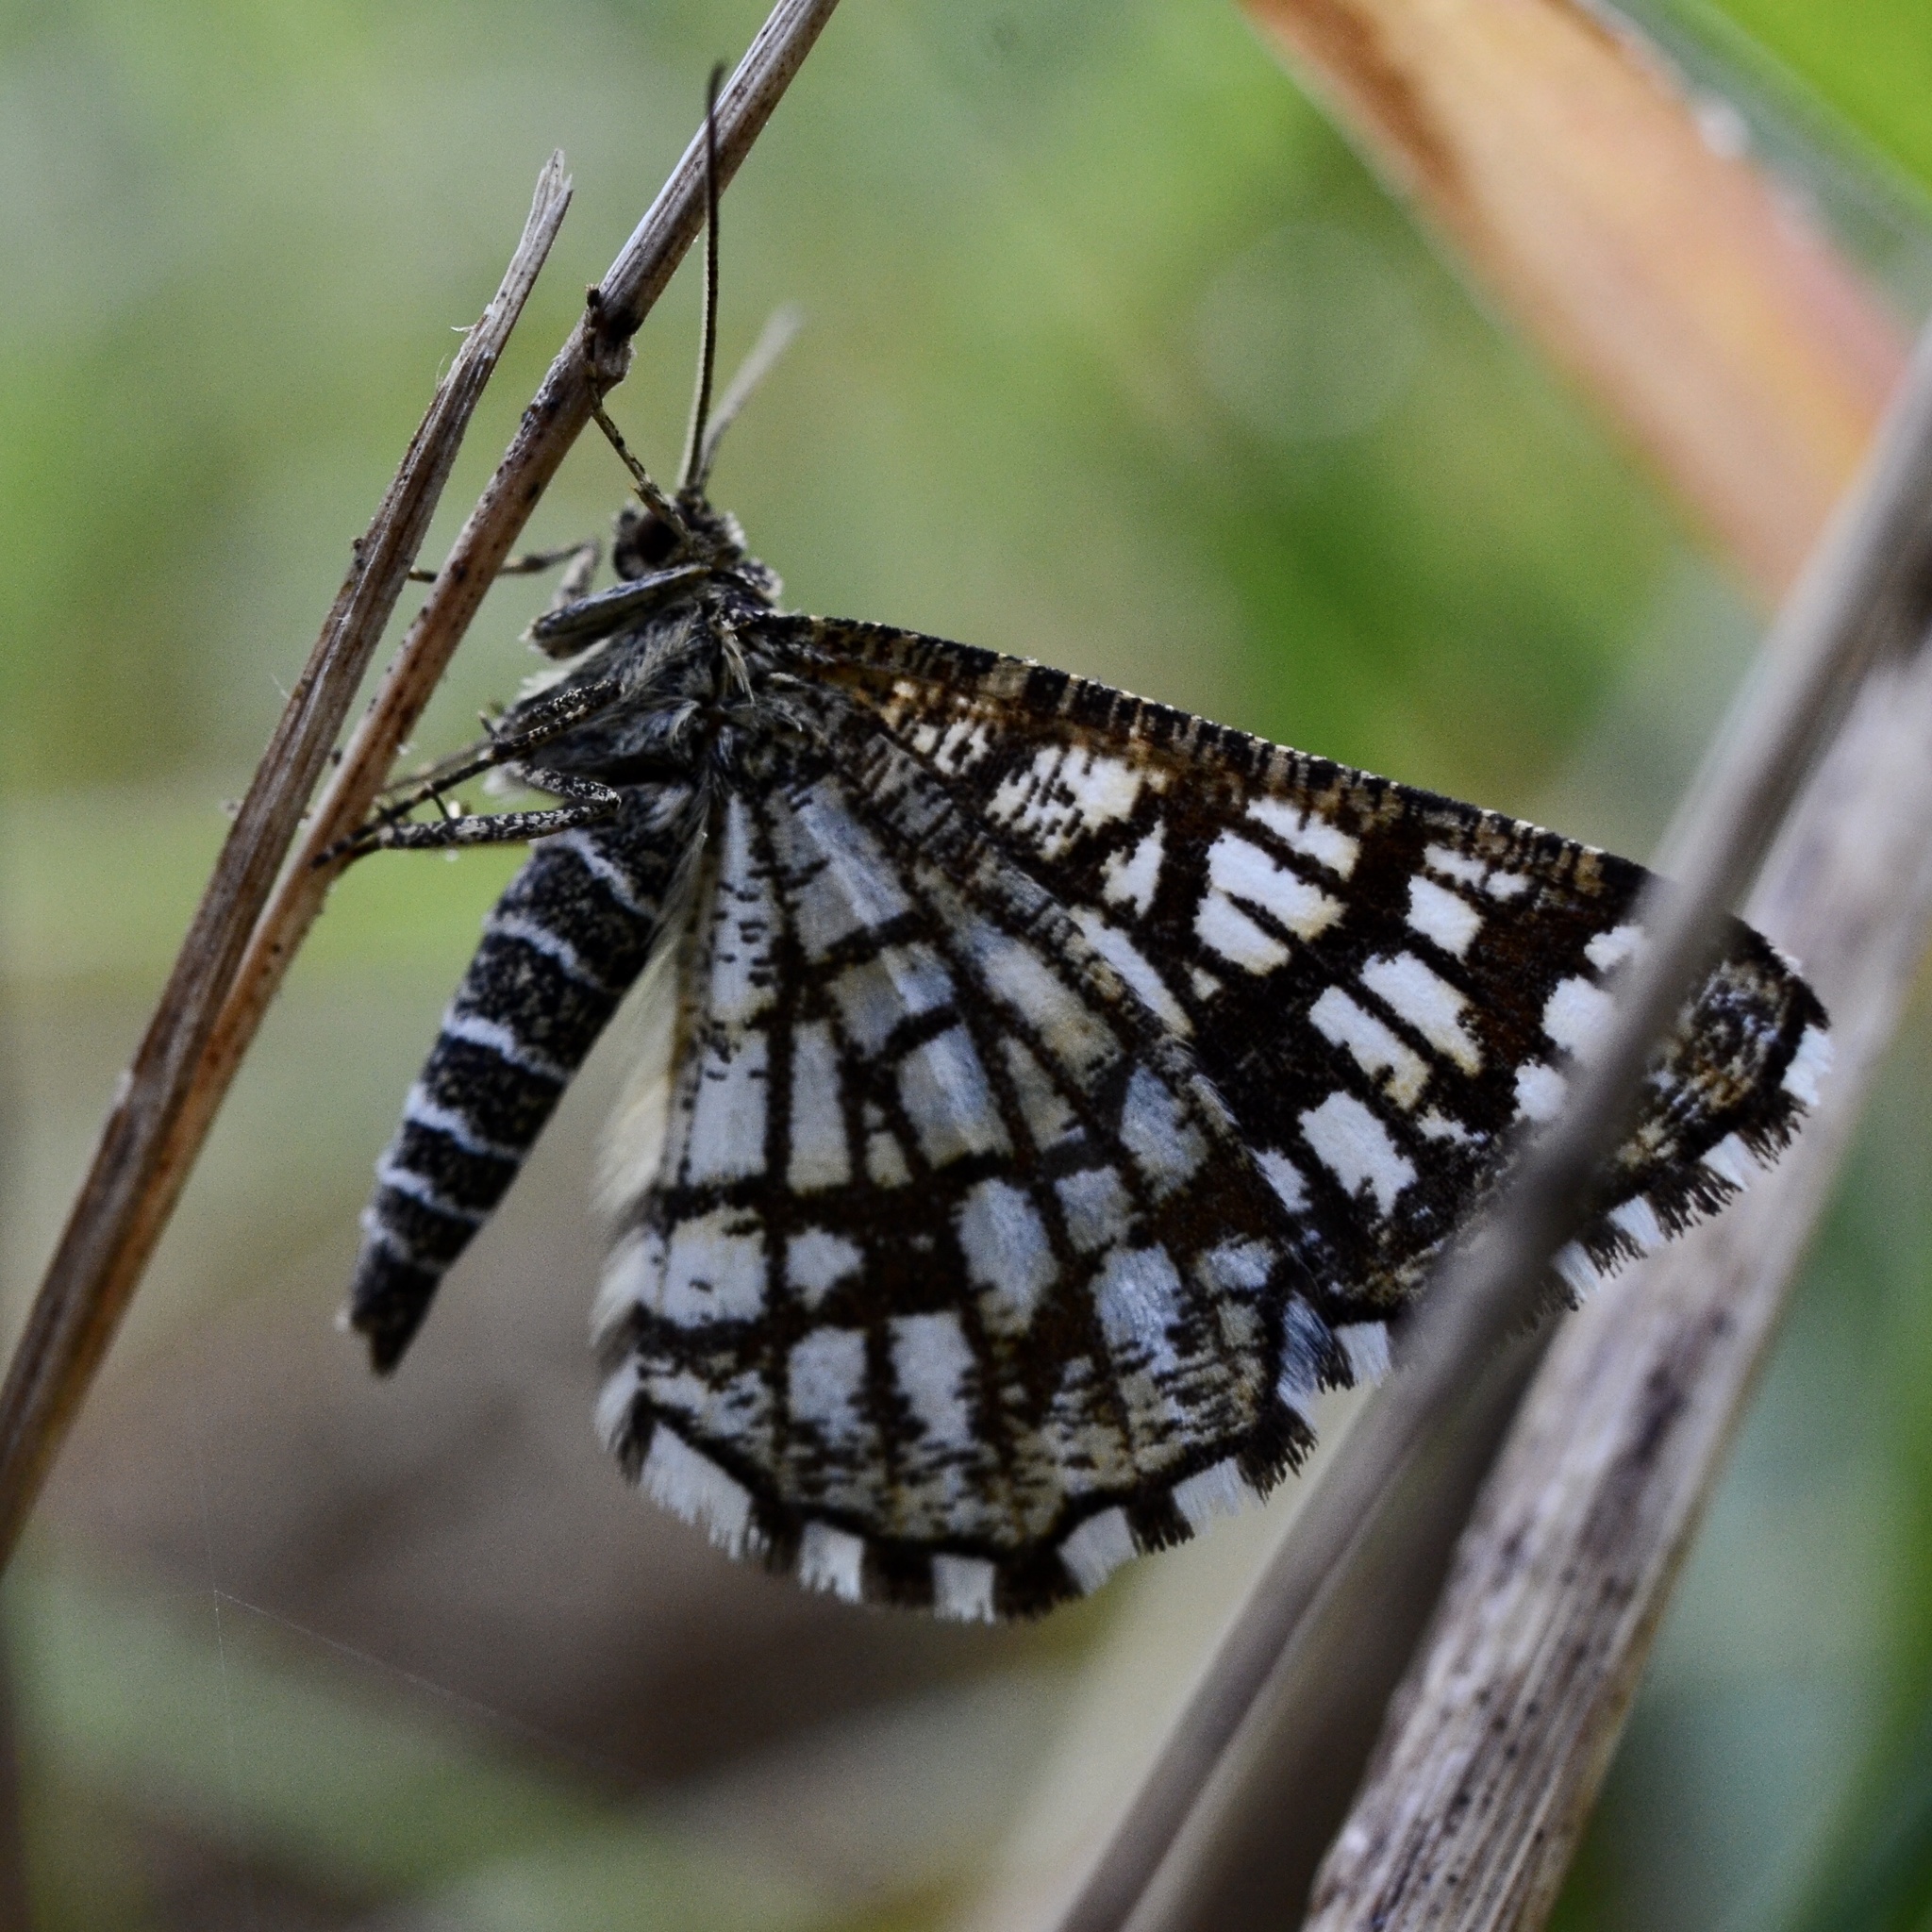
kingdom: Animalia
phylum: Arthropoda
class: Insecta
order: Lepidoptera
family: Geometridae
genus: Chiasmia
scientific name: Chiasmia clathrata
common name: Latticed heath
